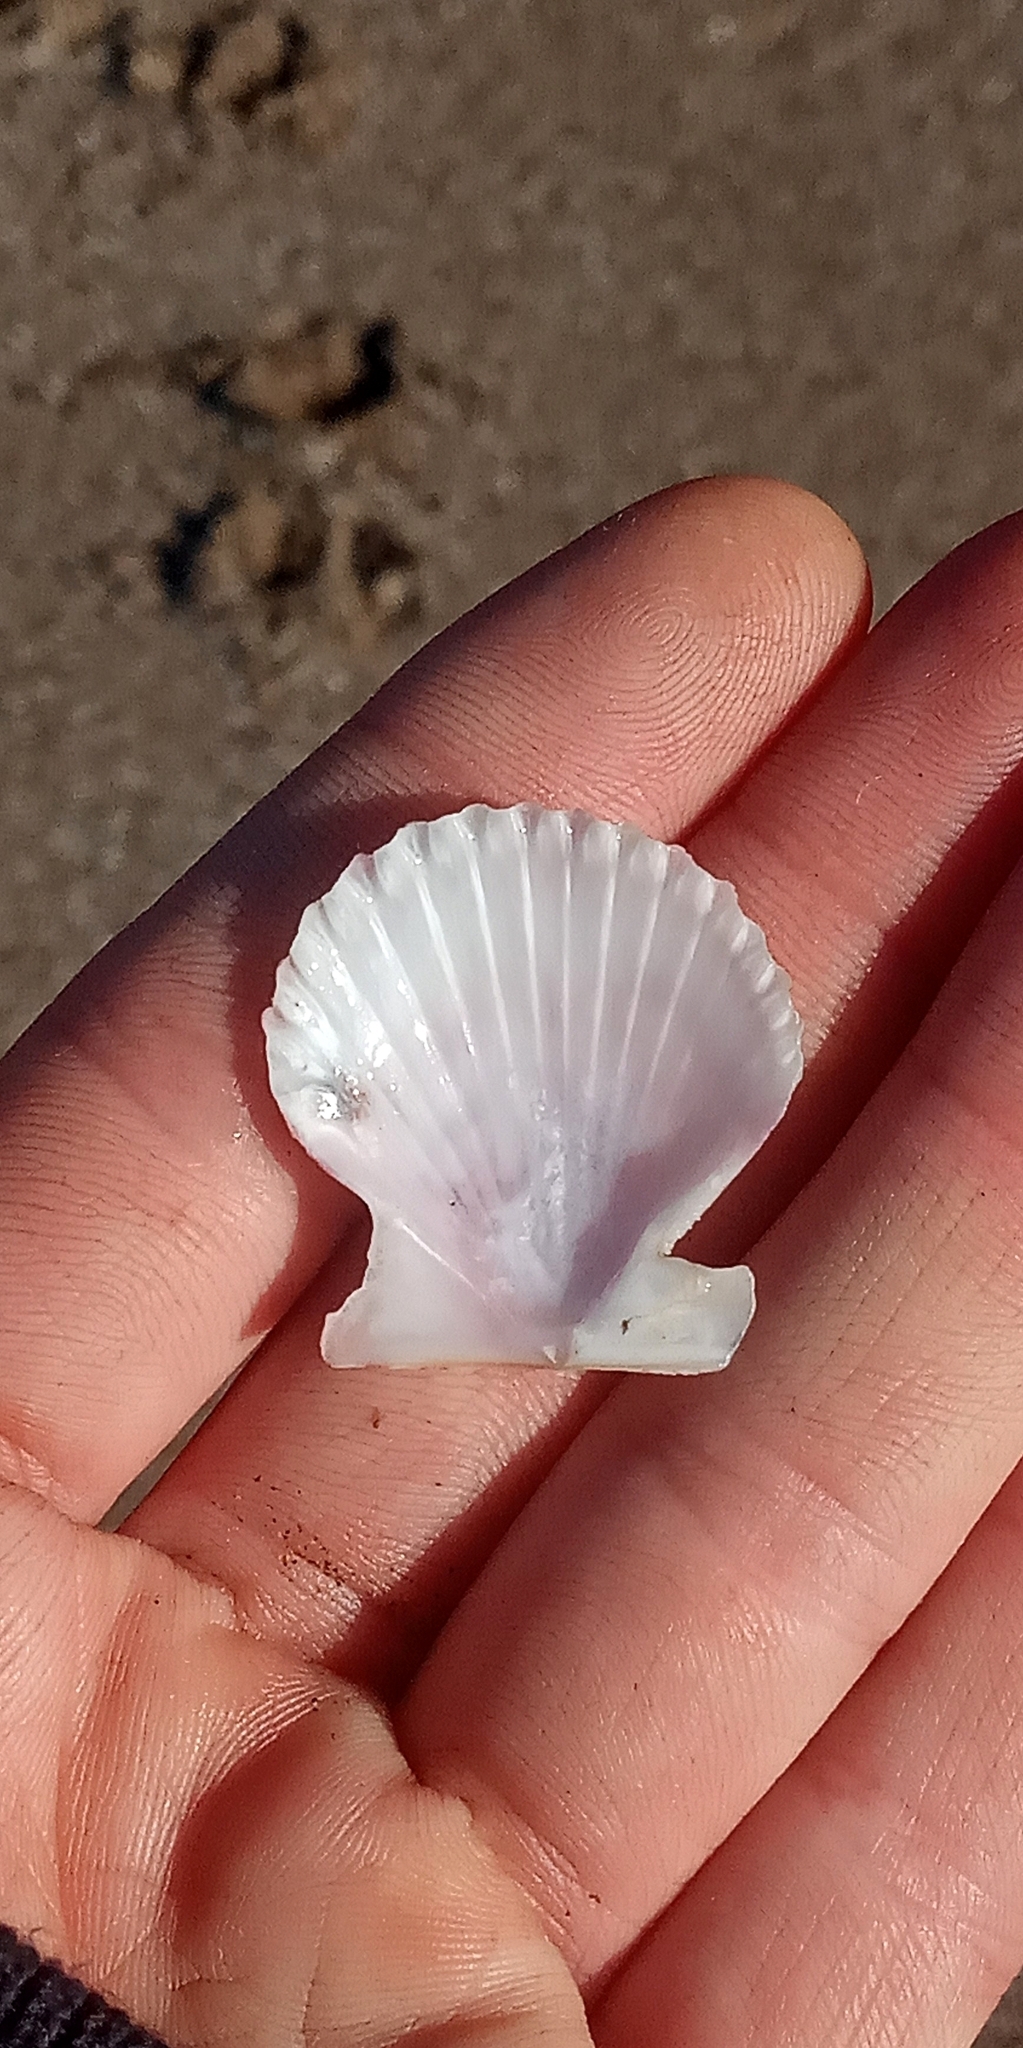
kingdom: Animalia
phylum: Mollusca
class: Bivalvia
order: Pectinida
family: Pectinidae
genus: Aequipecten
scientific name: Aequipecten tehuelchus
